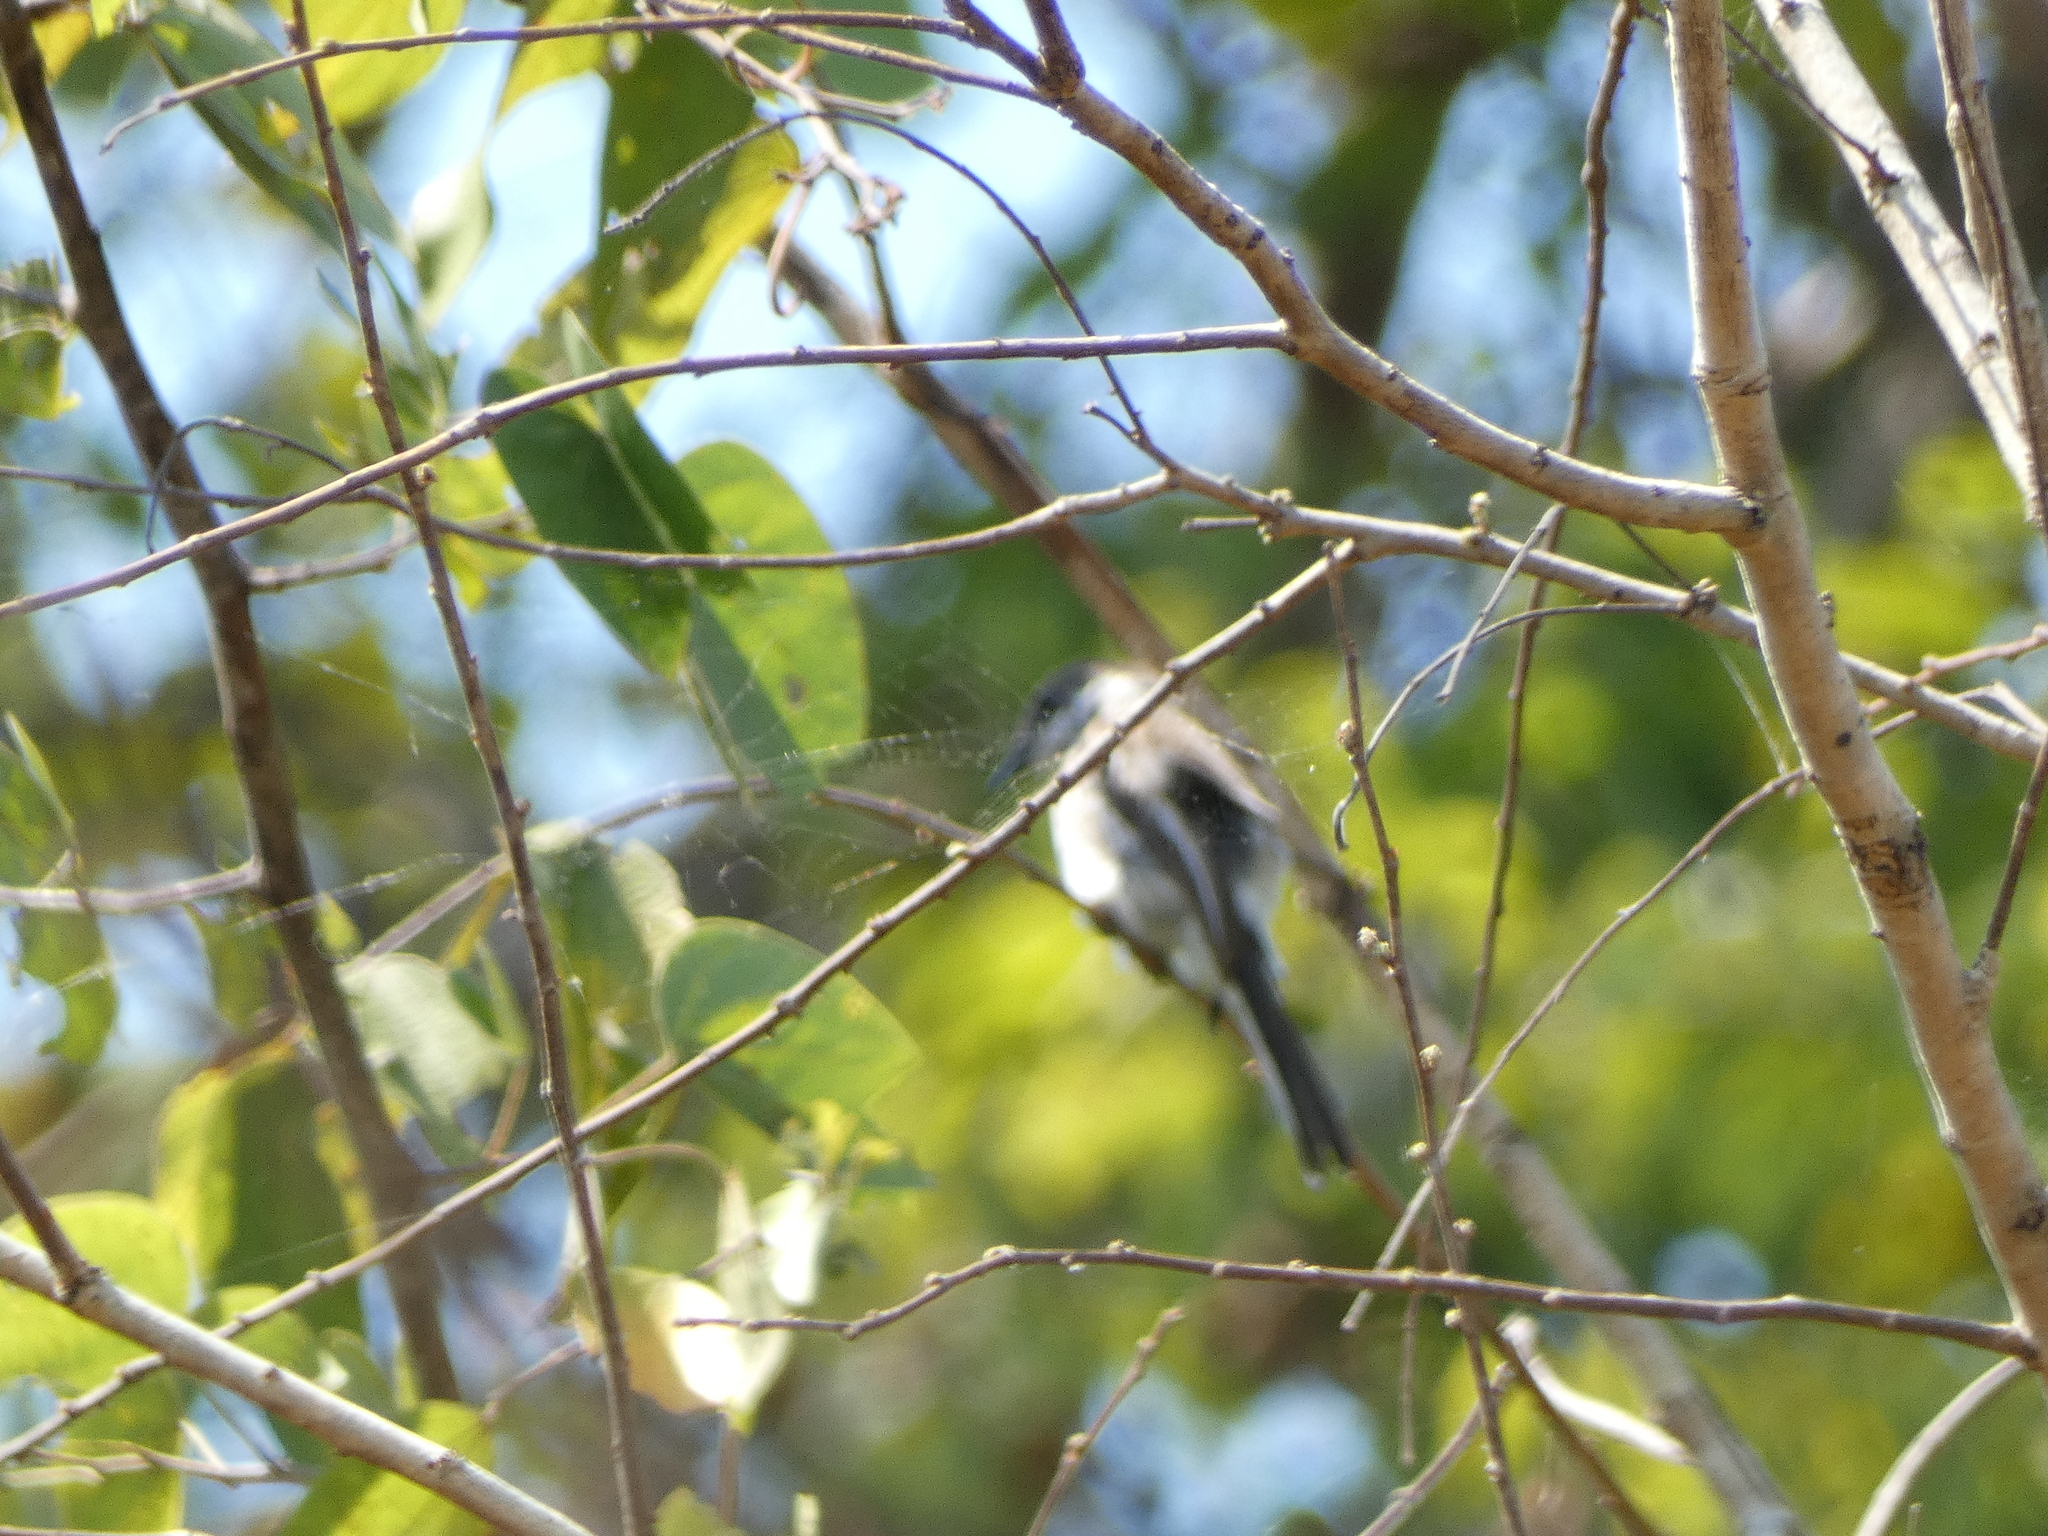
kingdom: Animalia
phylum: Chordata
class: Aves
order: Passeriformes
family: Tephrodornithidae
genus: Hemipus
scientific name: Hemipus picatus
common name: Bar-winged flycatcher-shrike
